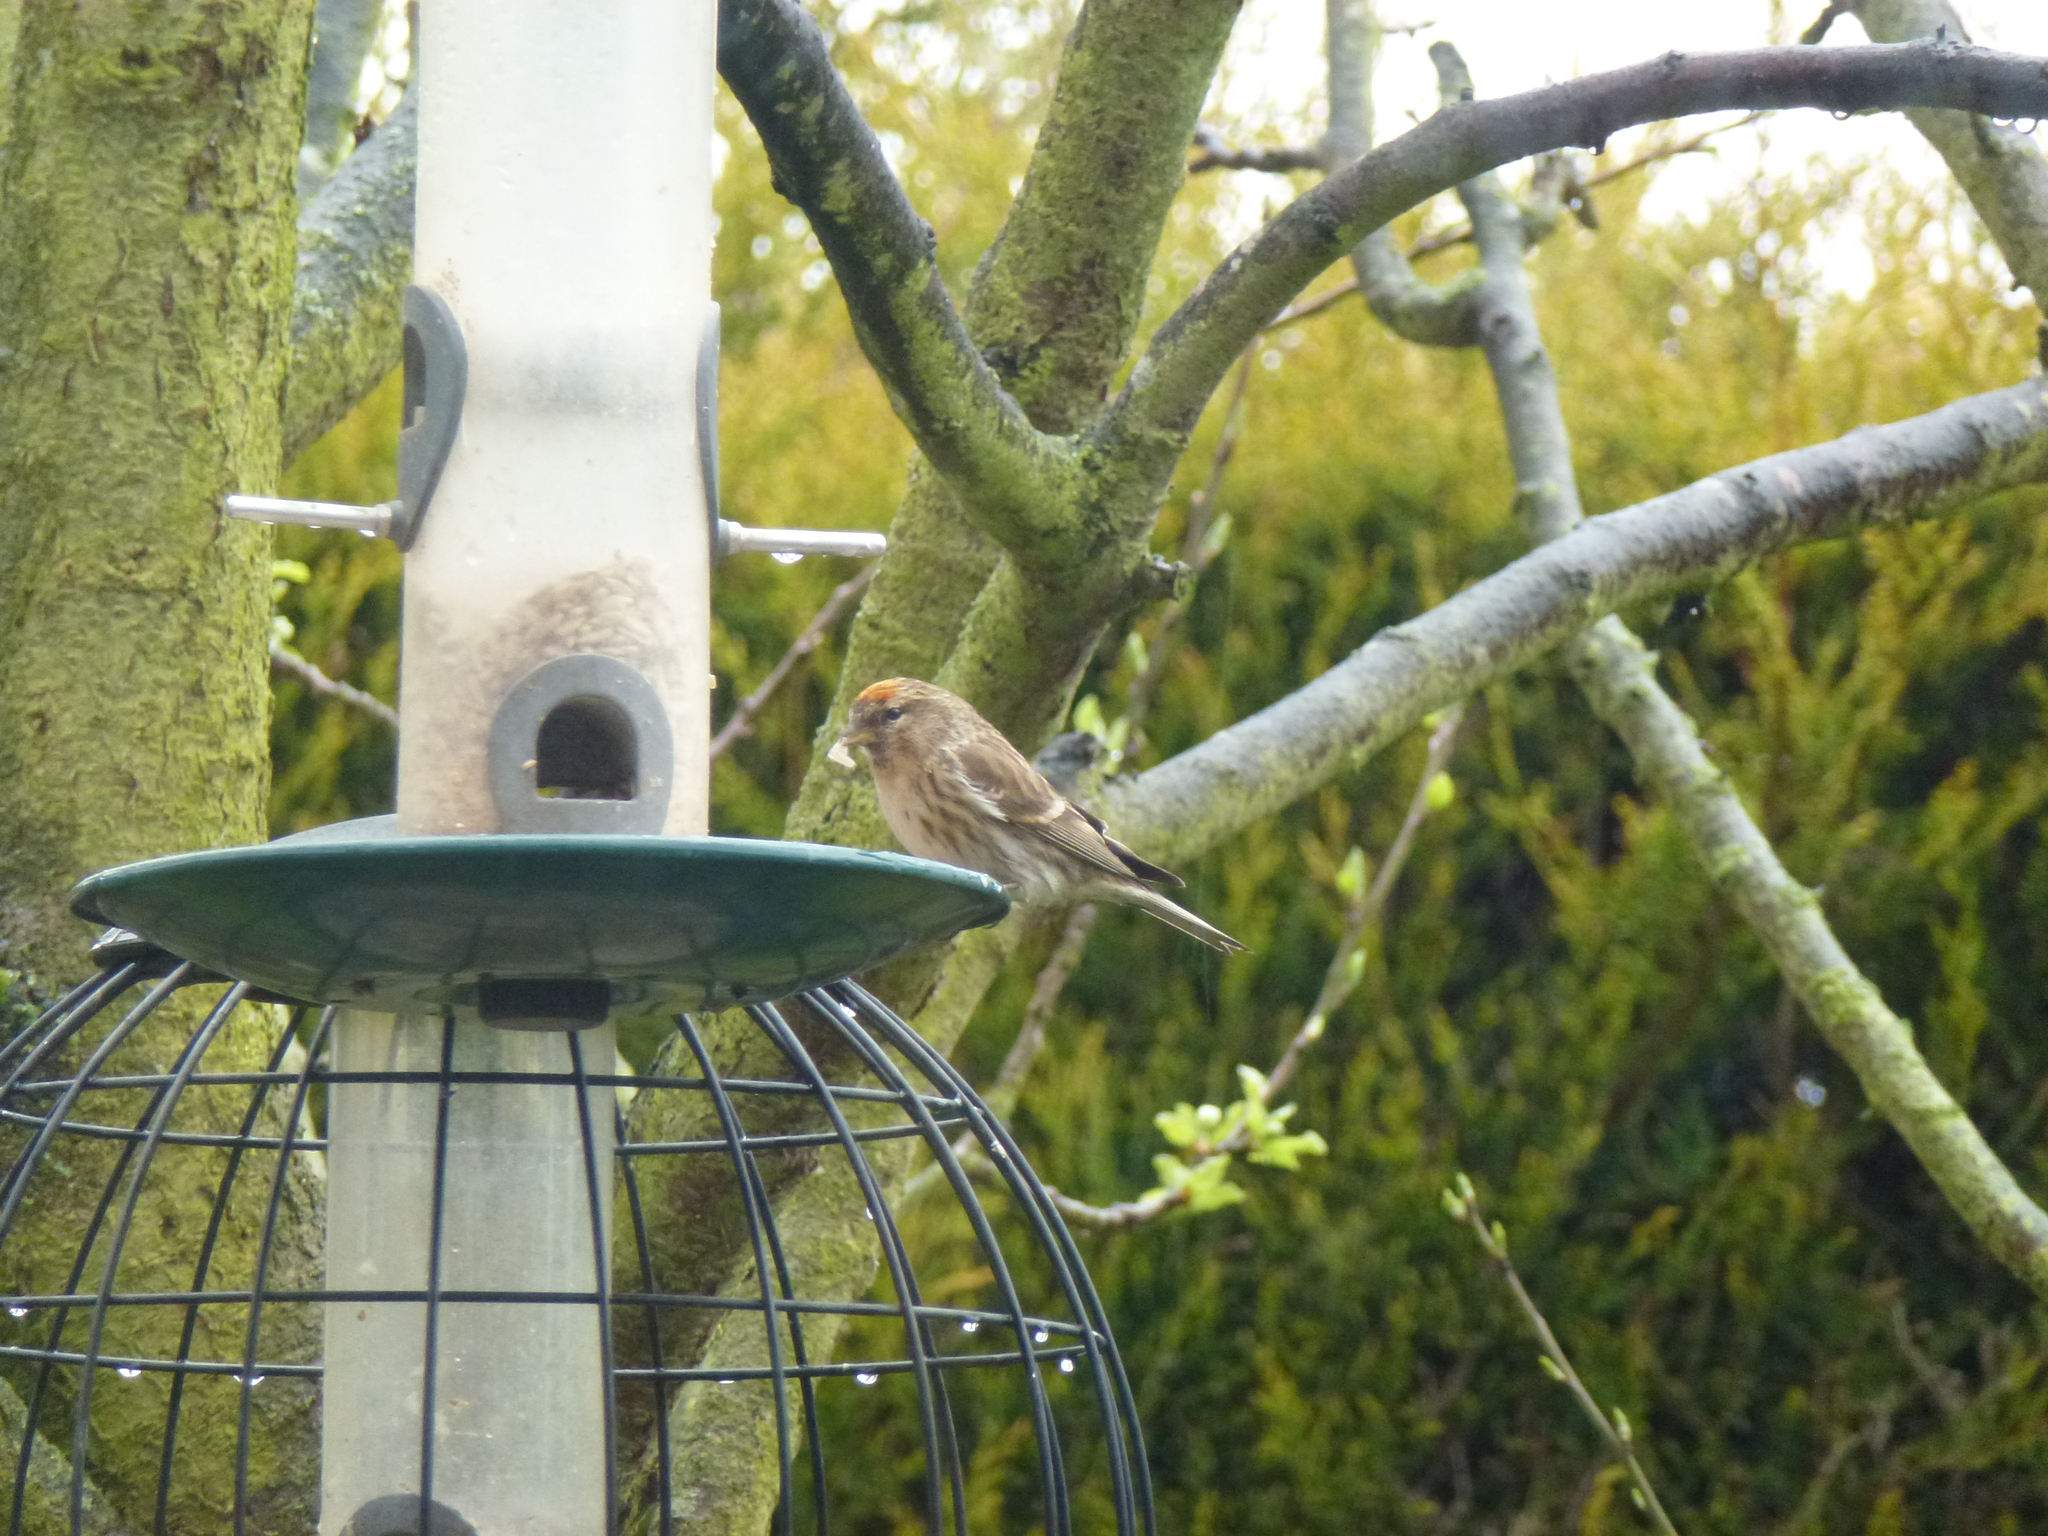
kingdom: Animalia
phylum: Chordata
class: Aves
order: Passeriformes
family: Fringillidae
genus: Acanthis
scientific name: Acanthis flammea
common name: Common redpoll
